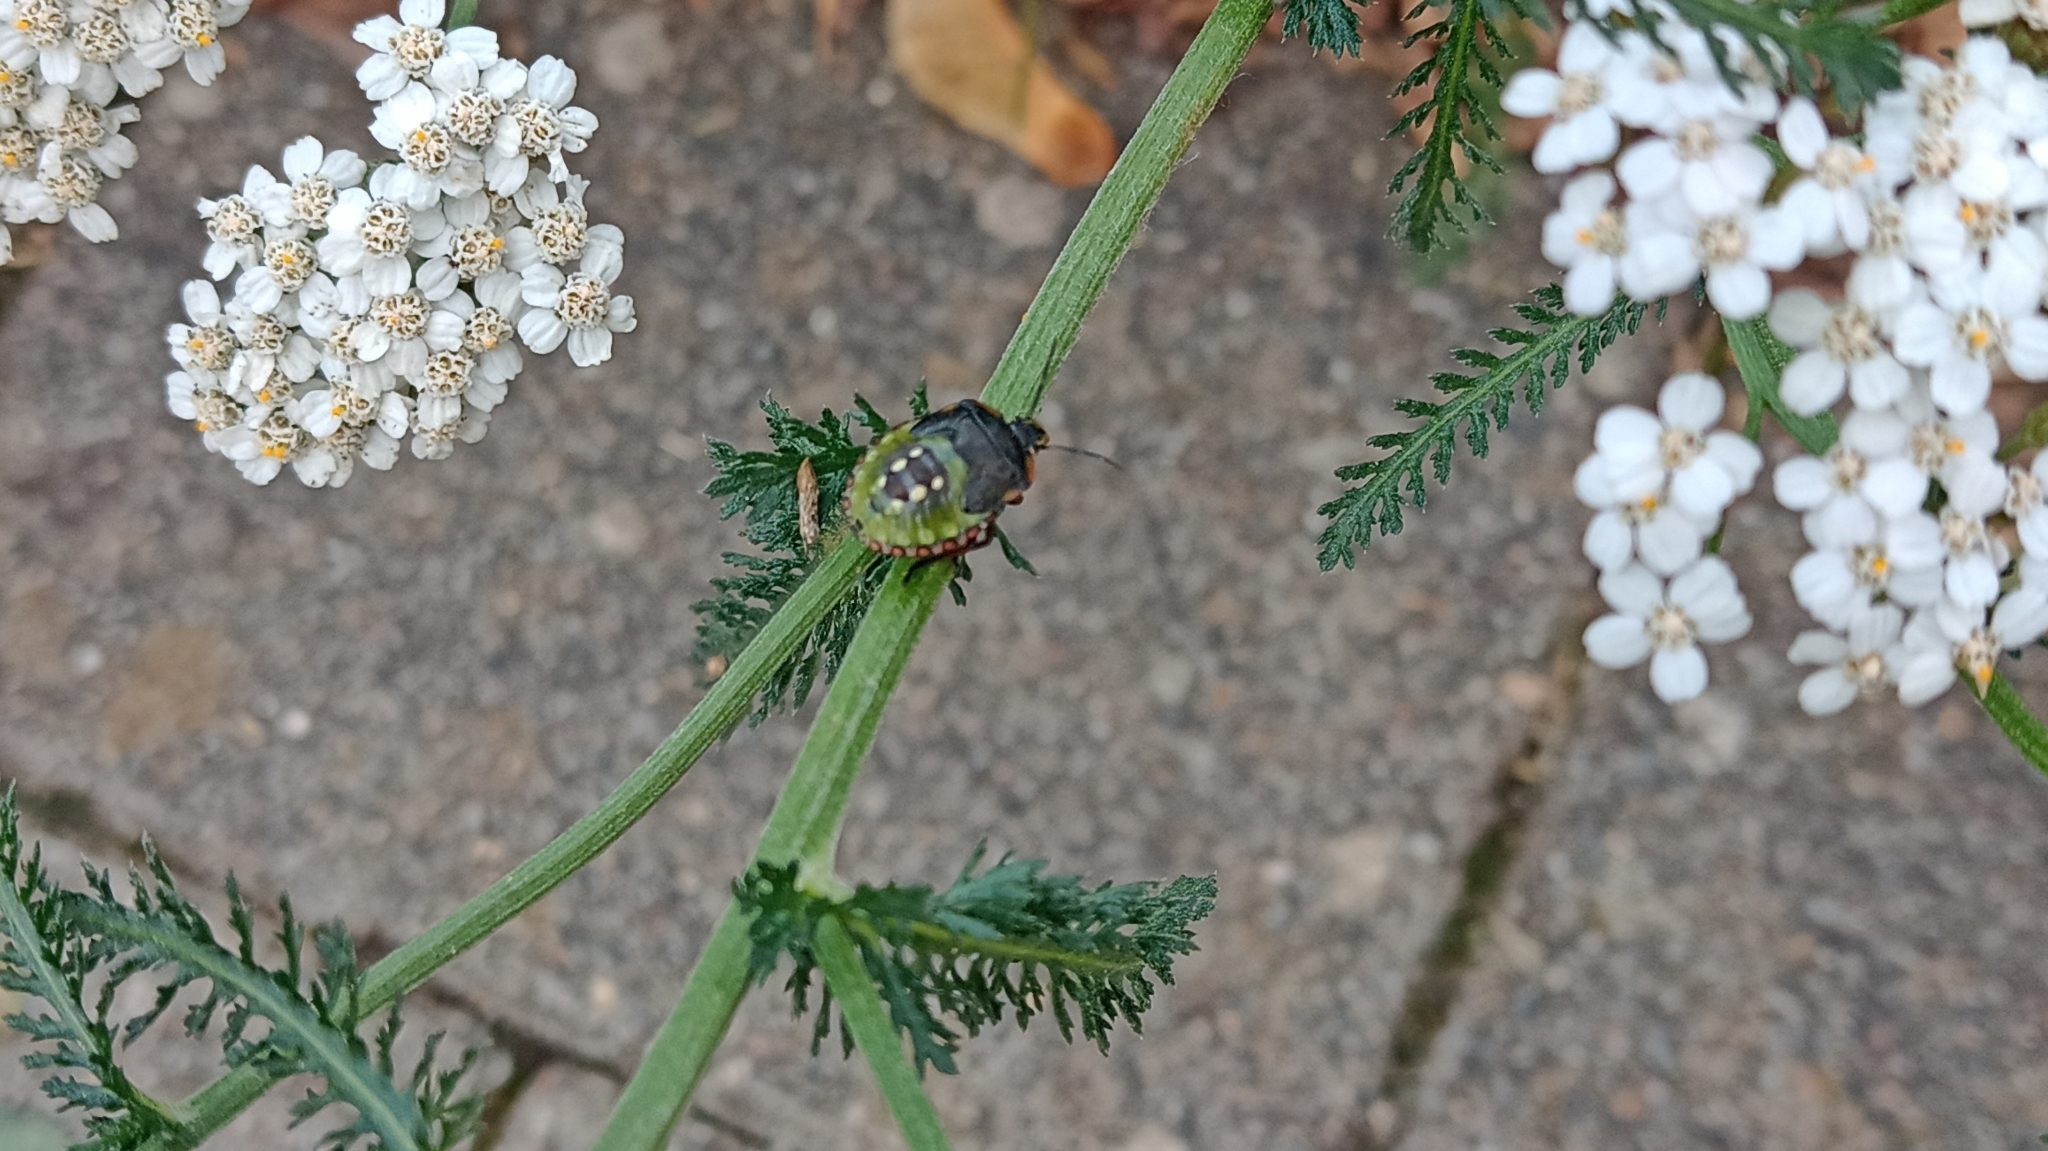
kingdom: Animalia
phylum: Arthropoda
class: Insecta
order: Hemiptera
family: Pentatomidae
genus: Nezara
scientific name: Nezara viridula
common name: Southern green stink bug
